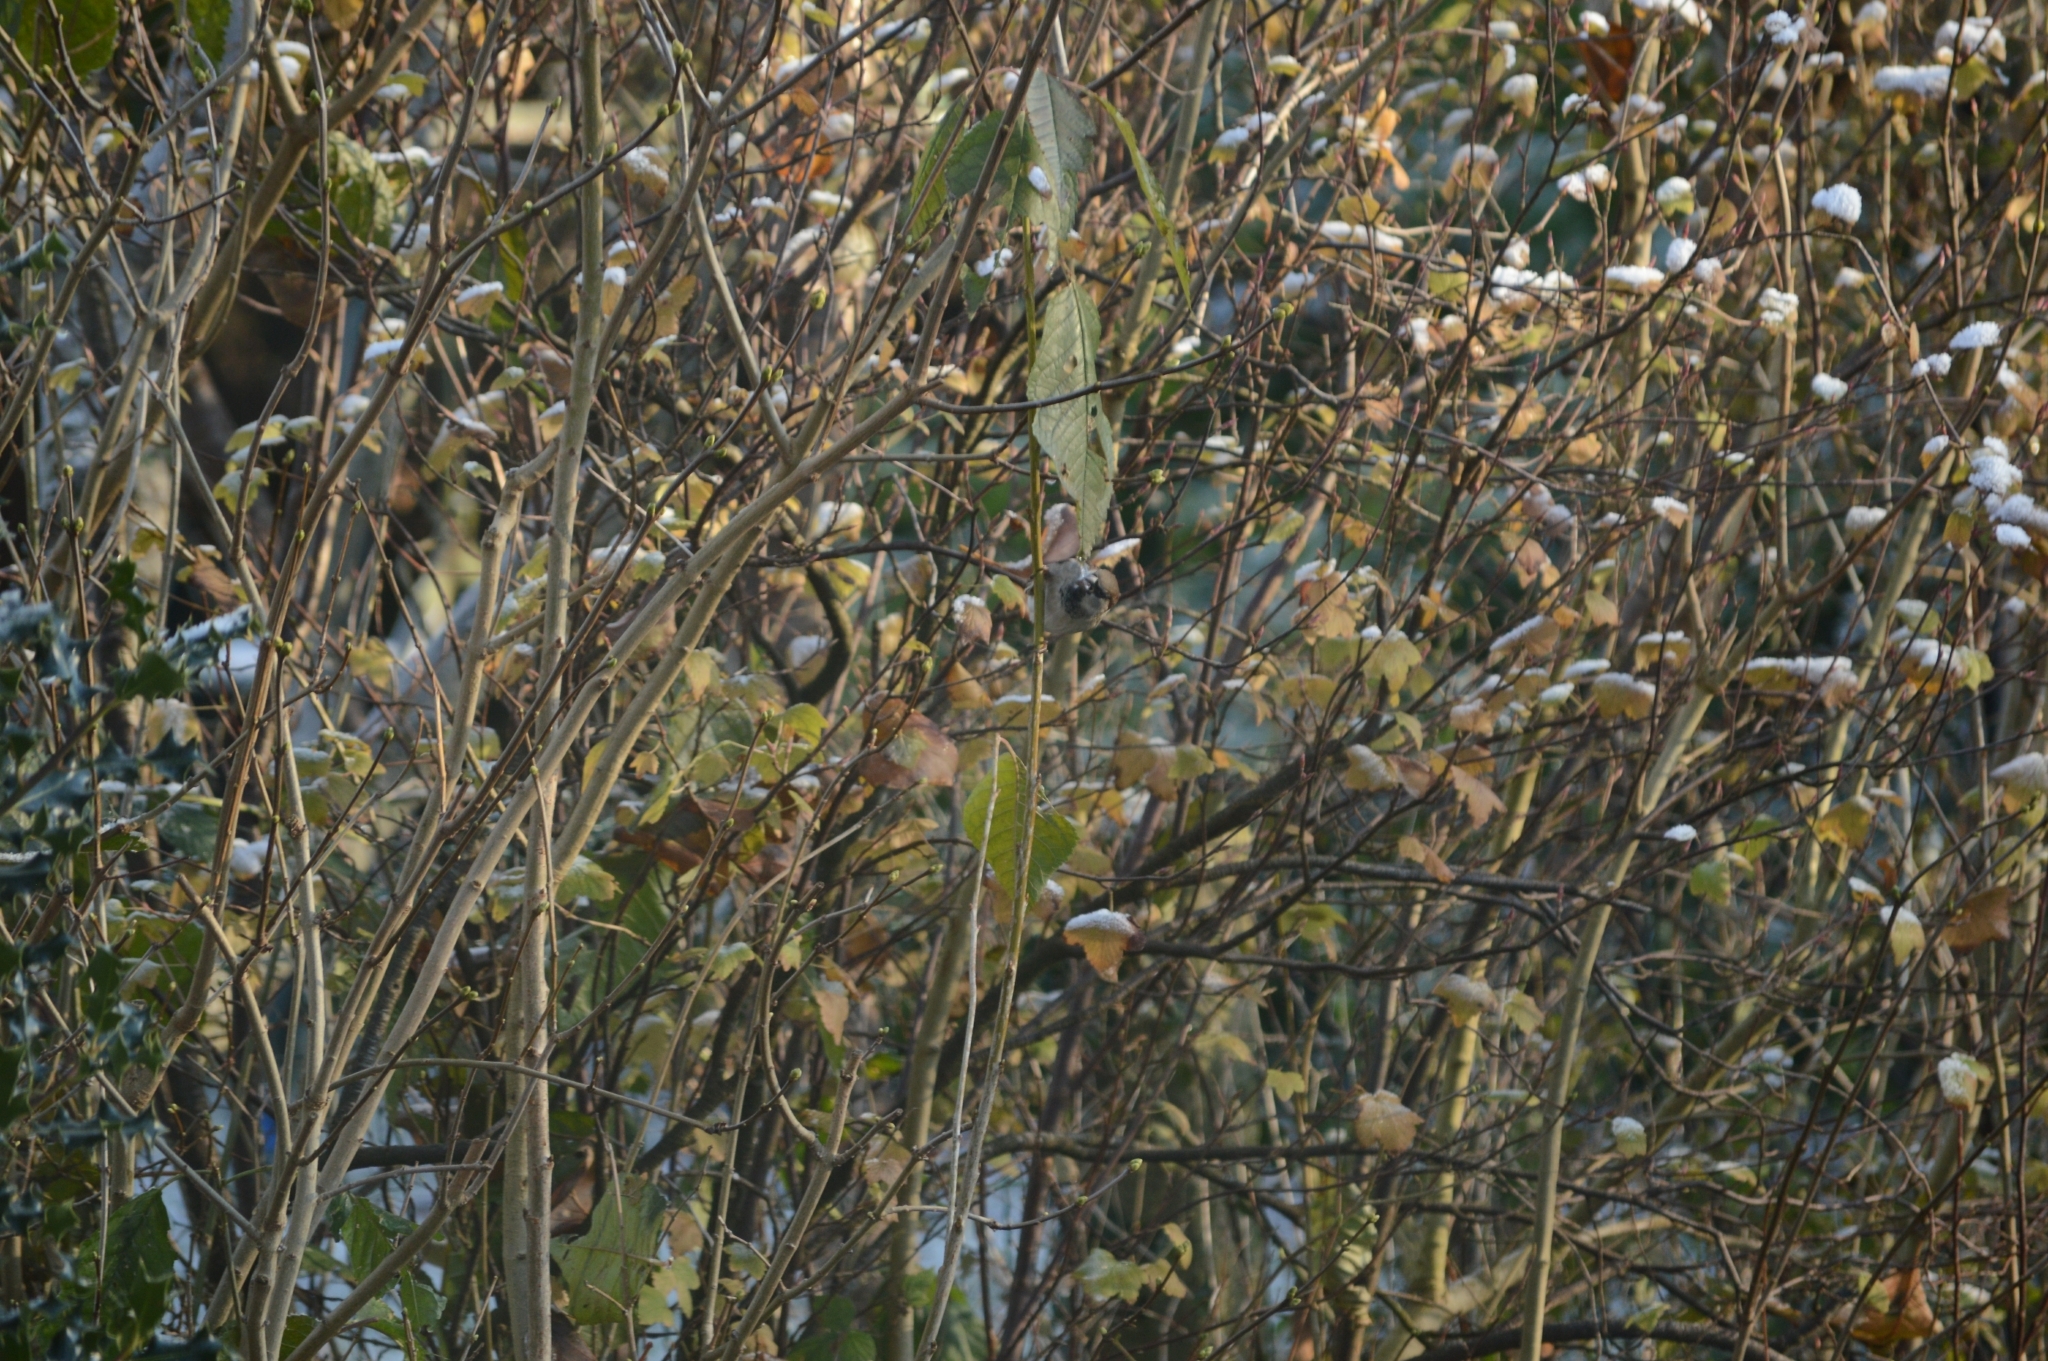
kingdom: Animalia
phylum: Chordata
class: Aves
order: Passeriformes
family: Passeridae
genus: Passer
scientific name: Passer domesticus
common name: House sparrow
